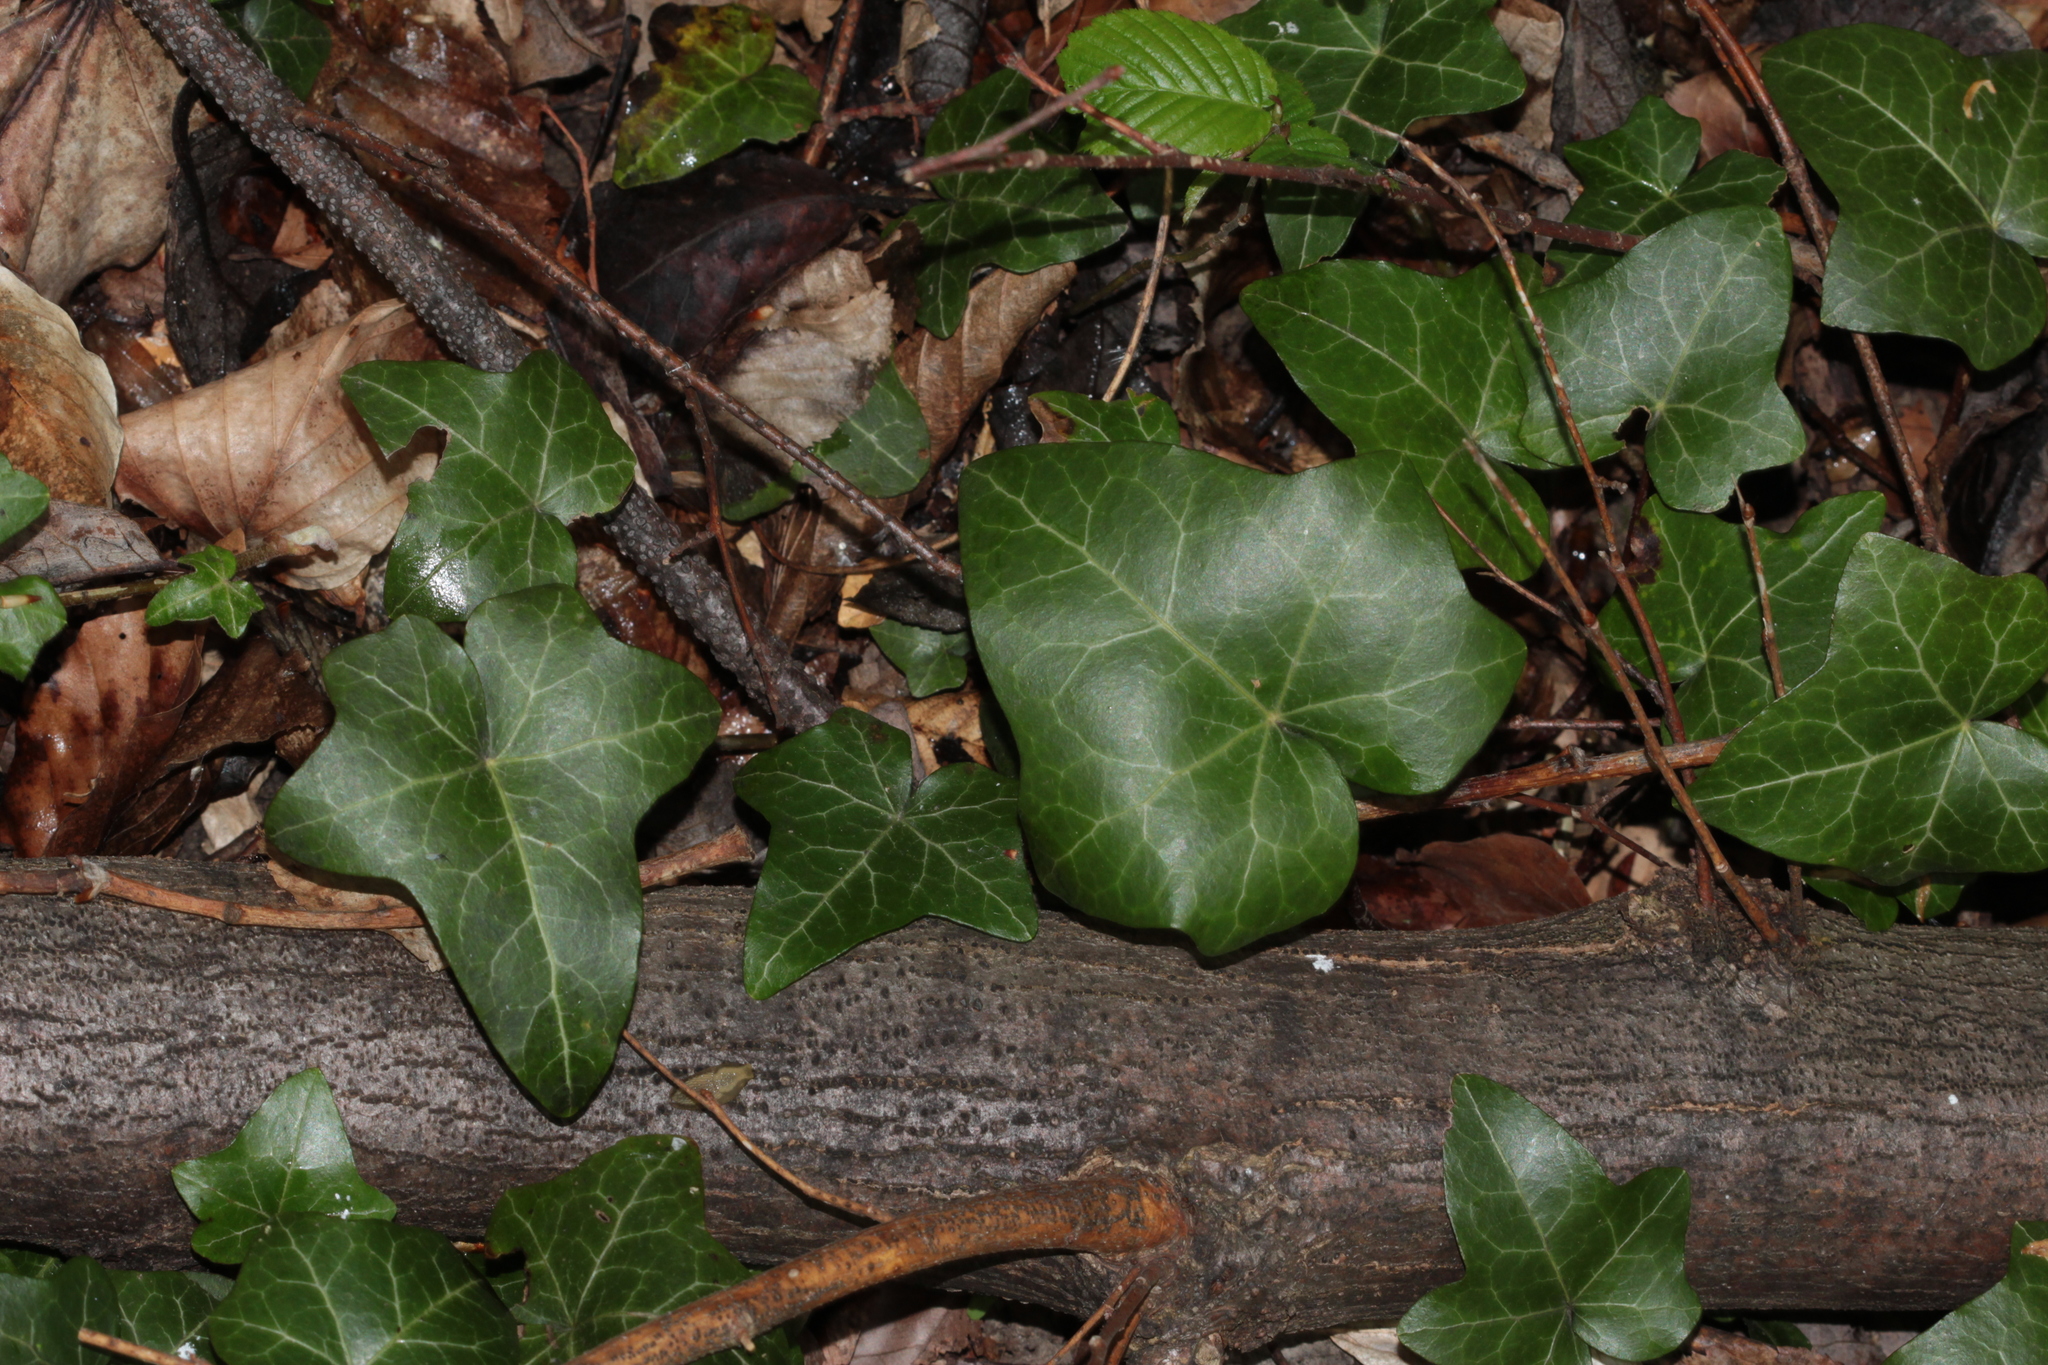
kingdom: Plantae
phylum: Tracheophyta
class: Magnoliopsida
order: Apiales
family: Araliaceae
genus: Hedera
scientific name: Hedera helix
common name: Ivy
